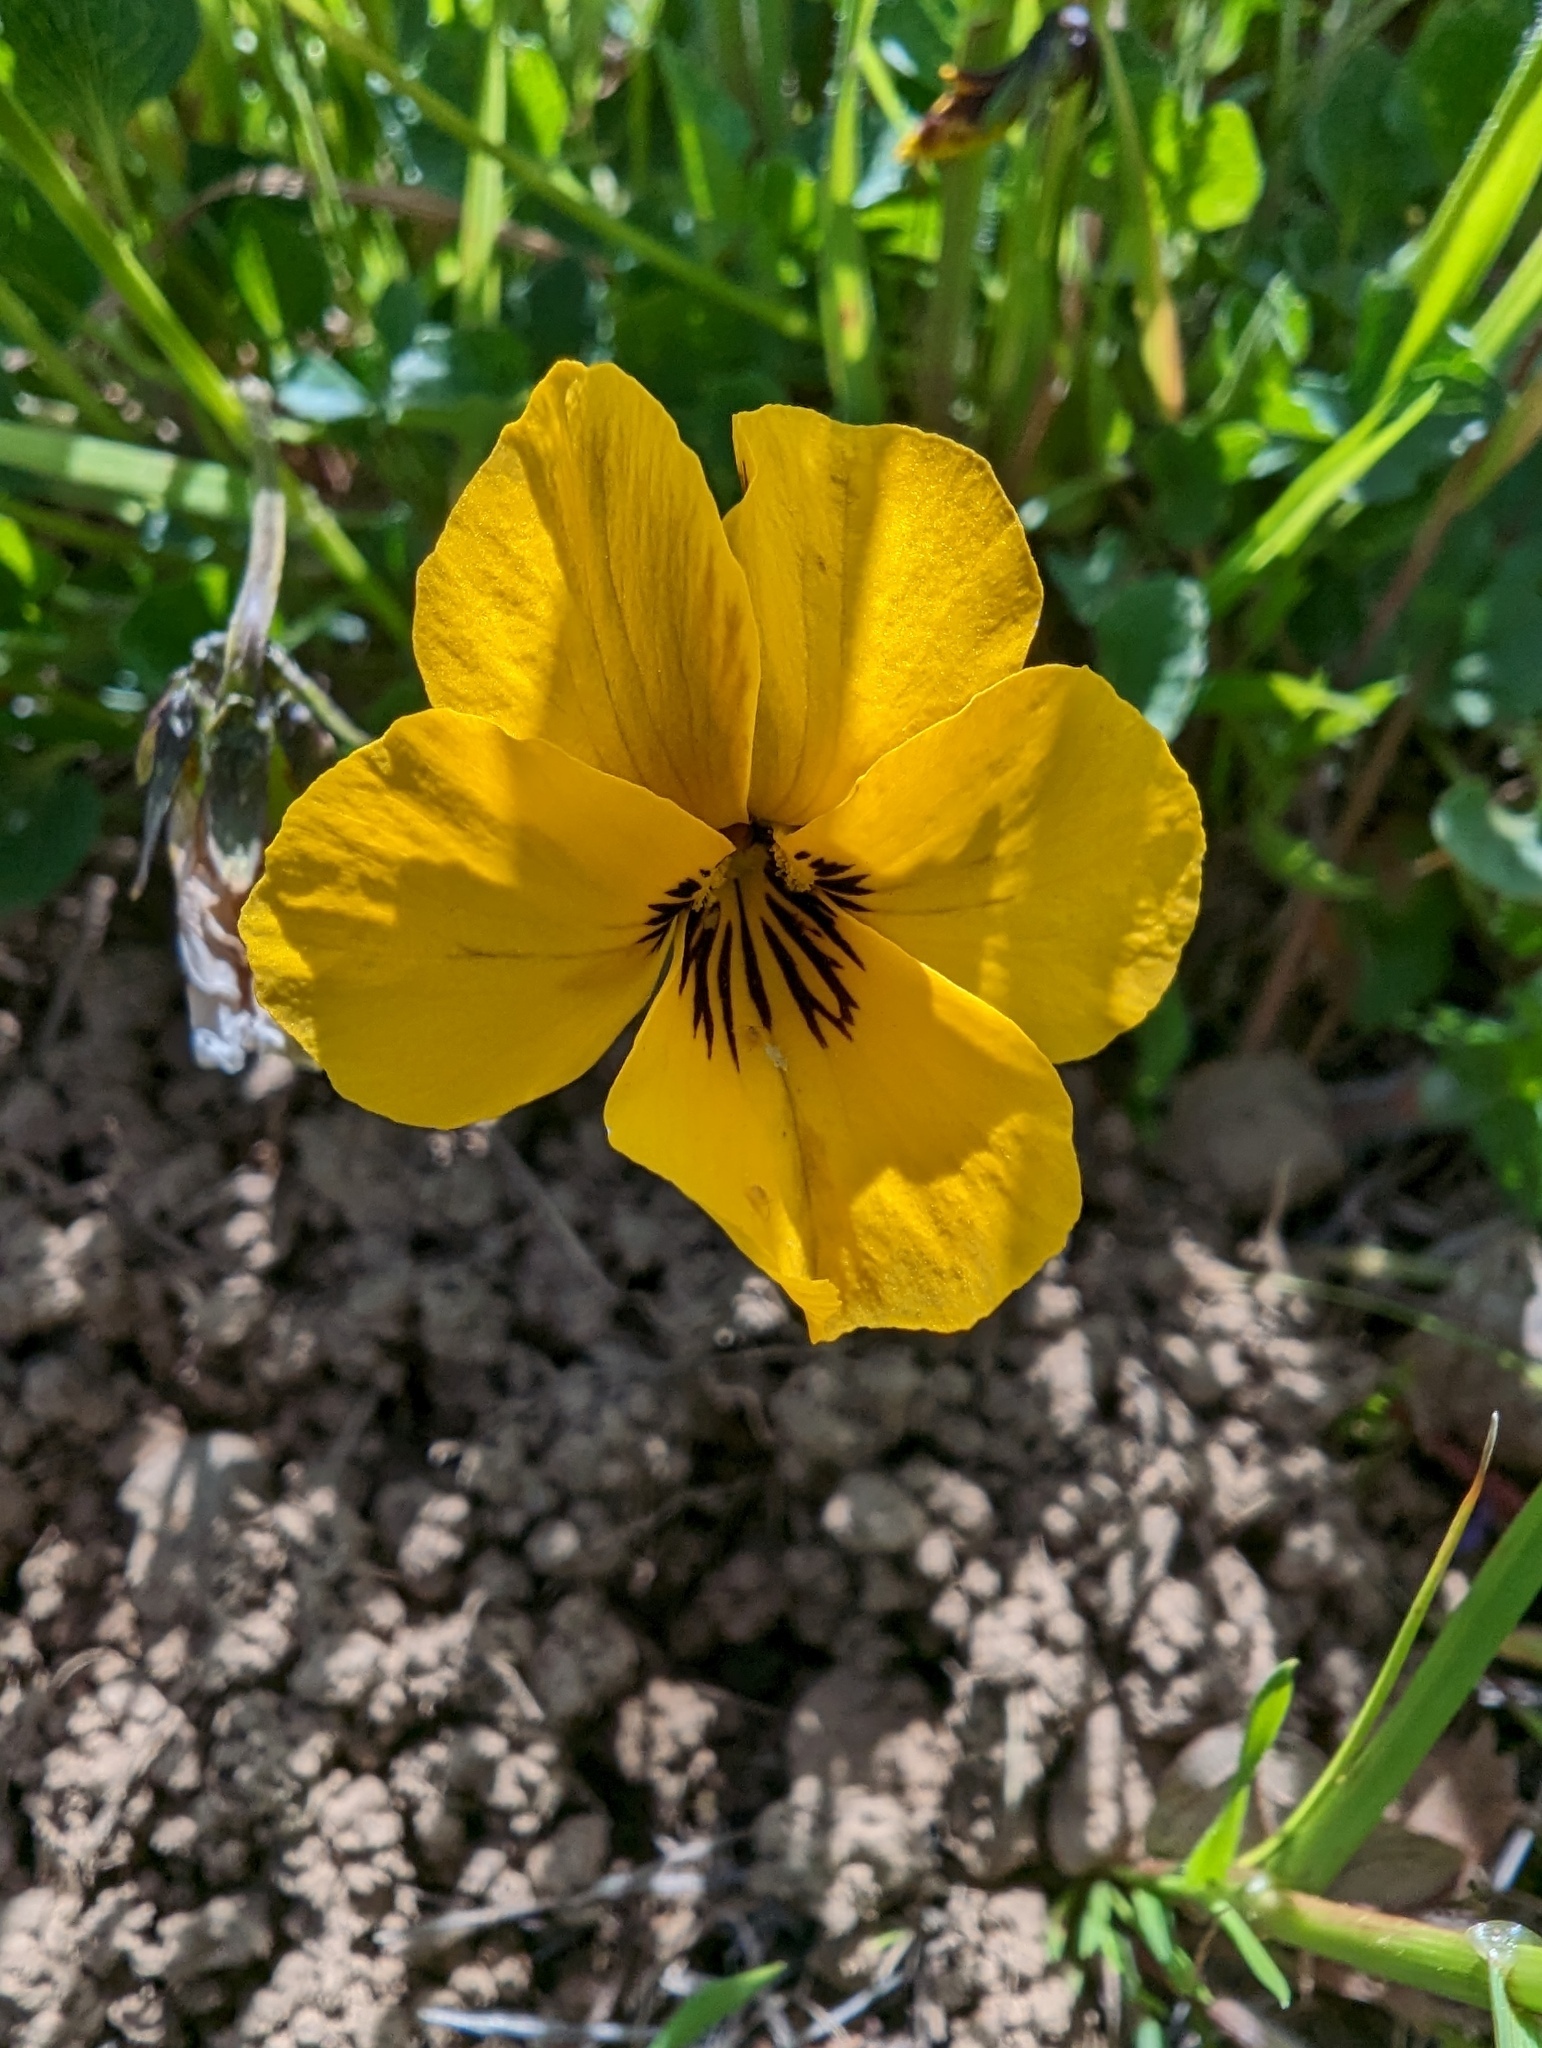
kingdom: Plantae
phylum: Tracheophyta
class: Magnoliopsida
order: Malpighiales
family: Violaceae
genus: Viola
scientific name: Viola pedunculata
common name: California golden violet
